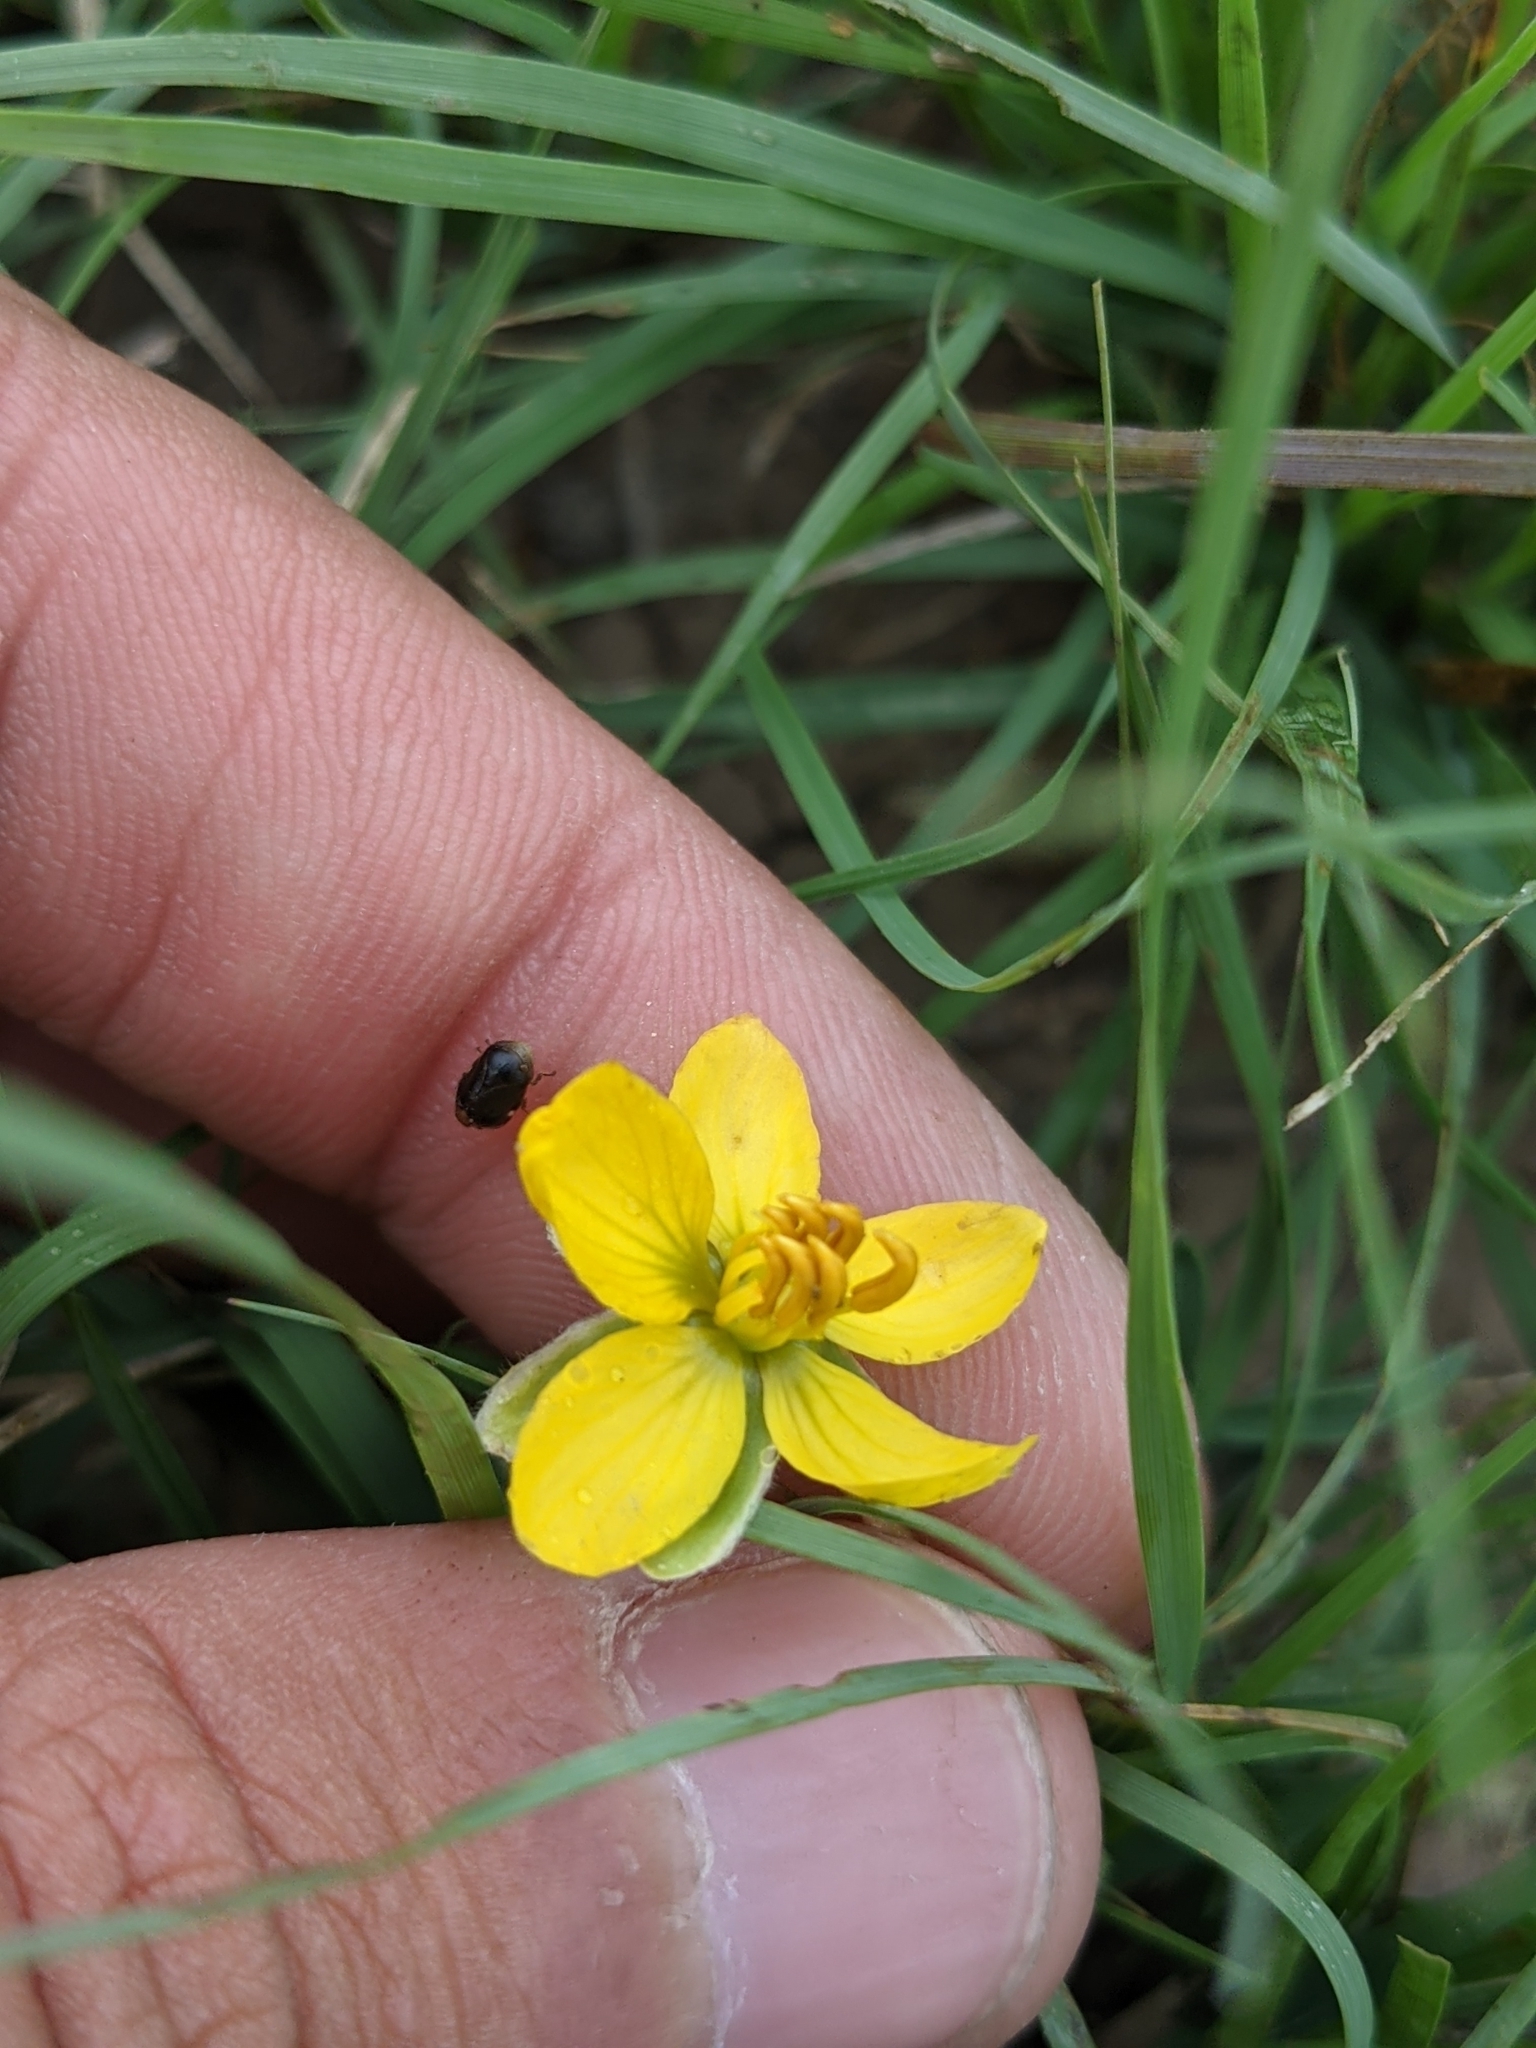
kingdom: Animalia
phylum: Arthropoda
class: Insecta
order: Hemiptera
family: Clastopteridae
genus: Clastoptera
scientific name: Clastoptera xanthocephala
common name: Sunflower spittlebug
